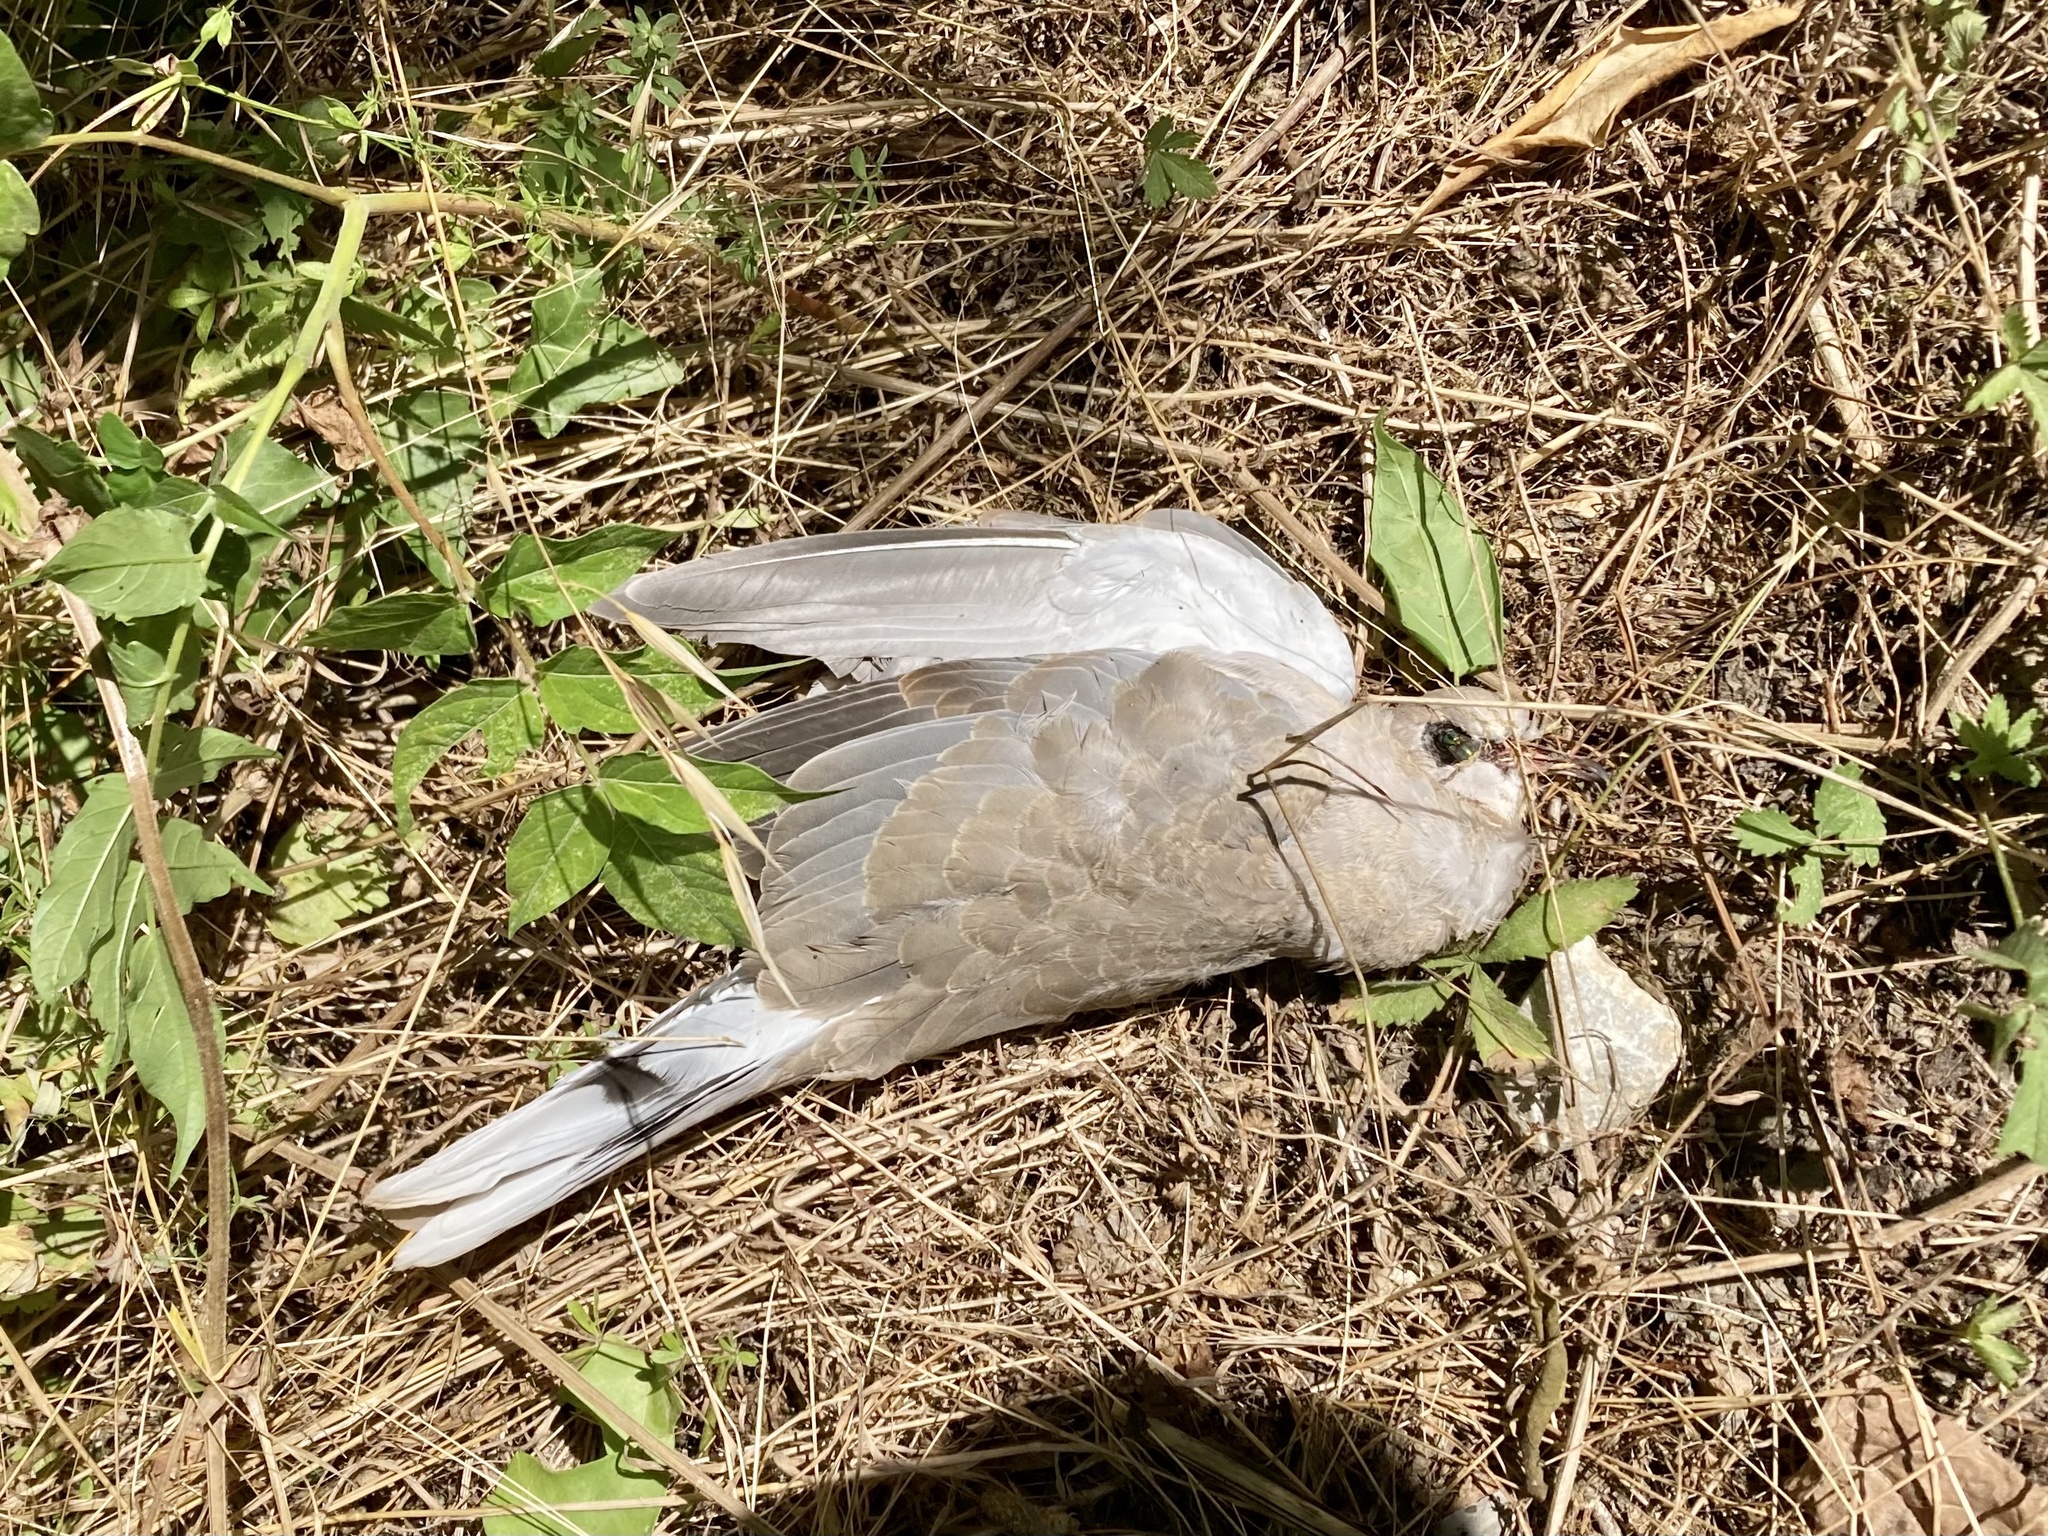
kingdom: Animalia
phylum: Chordata
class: Aves
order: Columbiformes
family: Columbidae
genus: Streptopelia
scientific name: Streptopelia decaocto
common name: Eurasian collared dove
